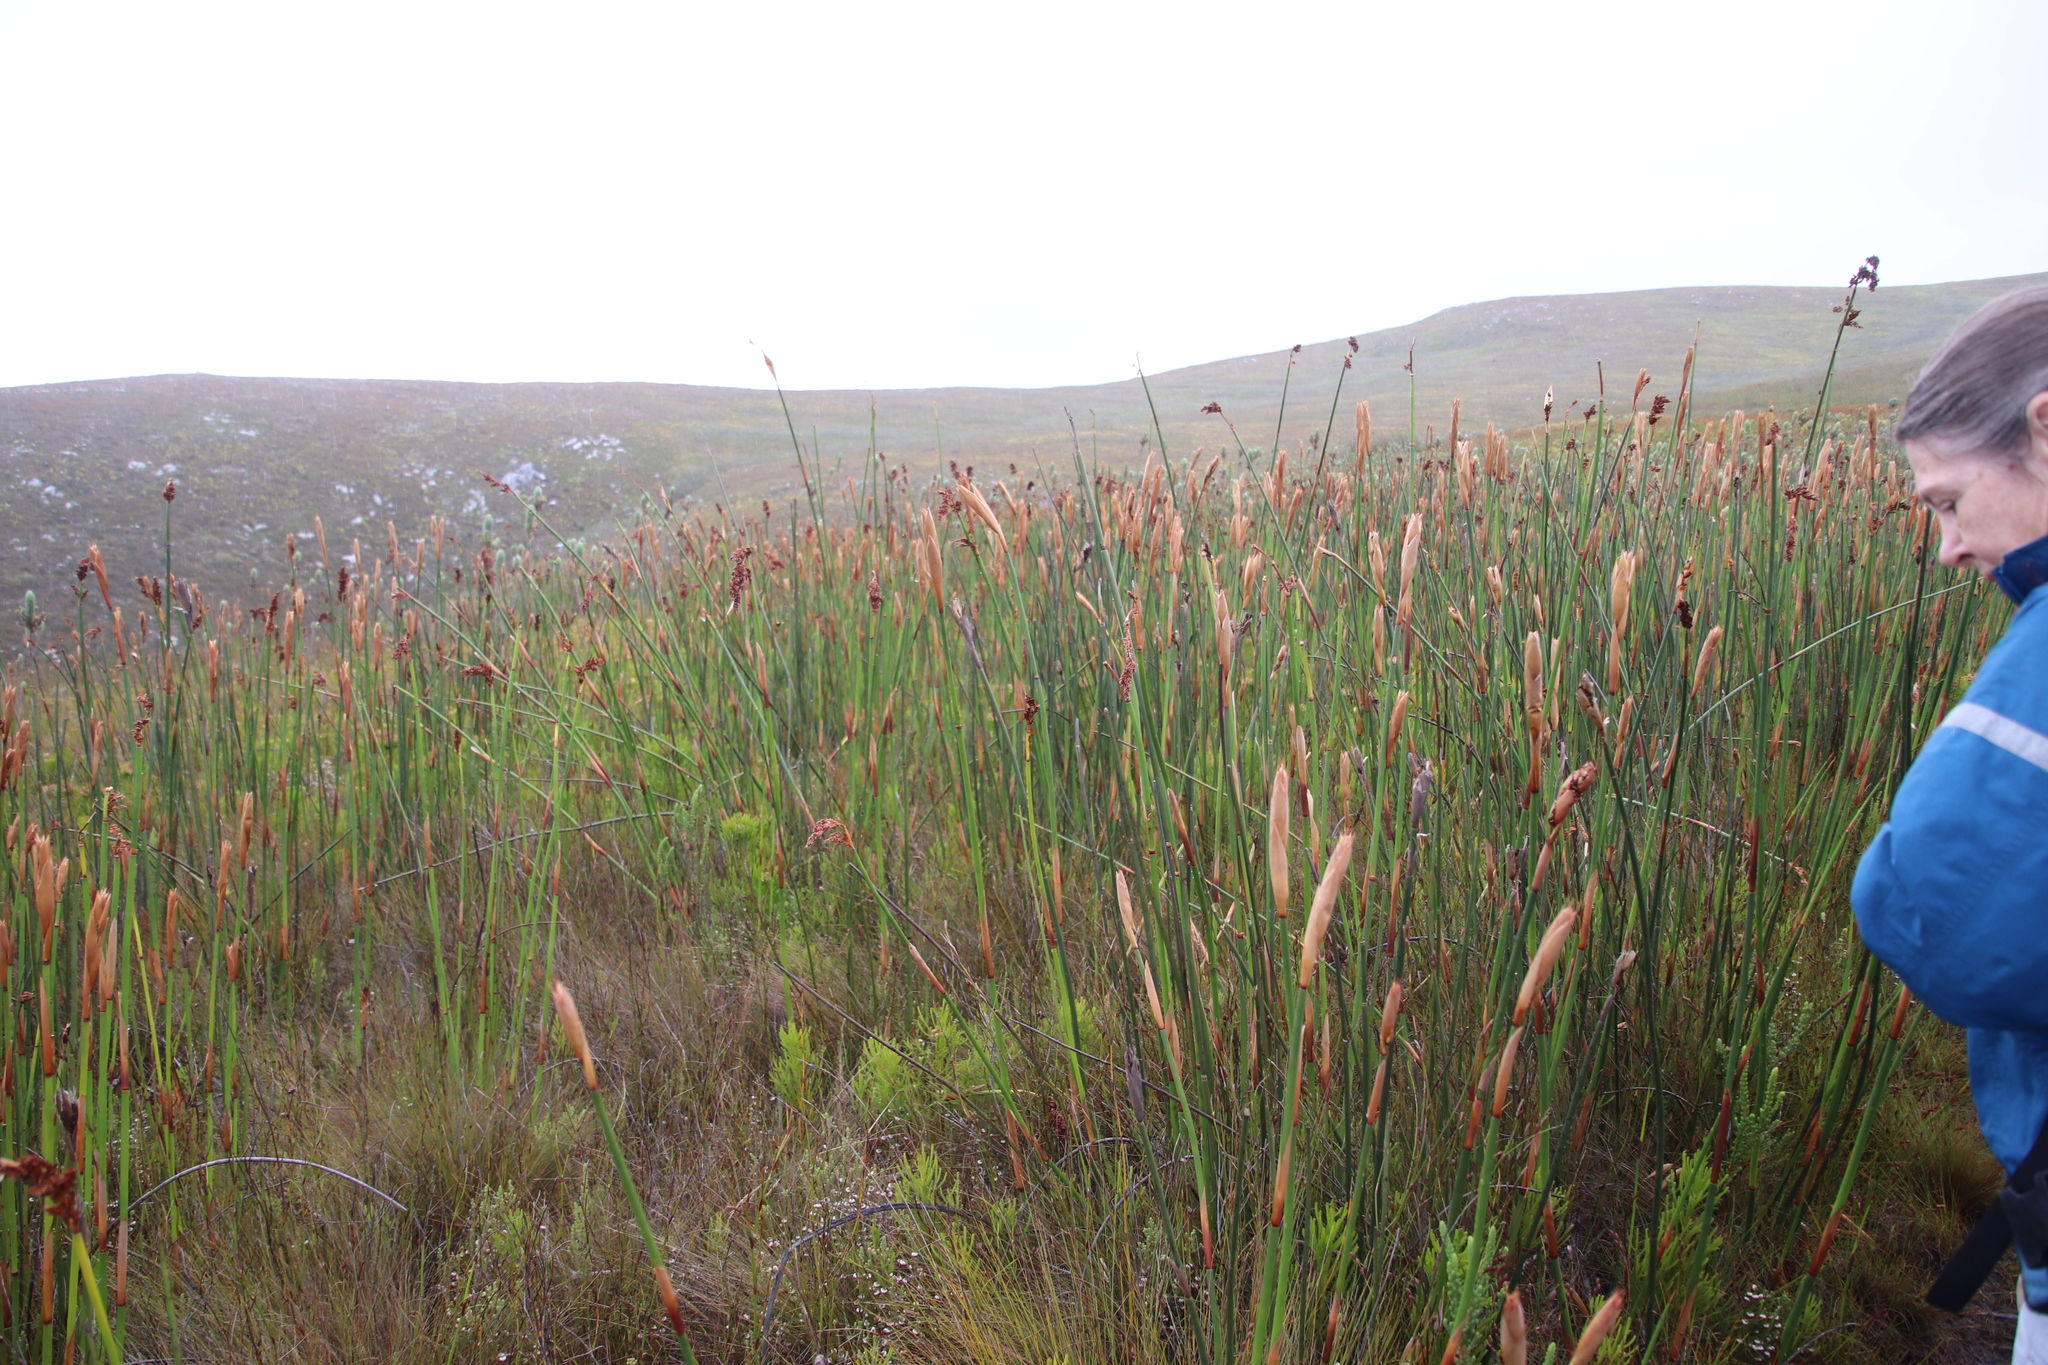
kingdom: Plantae
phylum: Tracheophyta
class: Liliopsida
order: Poales
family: Restionaceae
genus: Elegia
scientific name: Elegia mucronata
